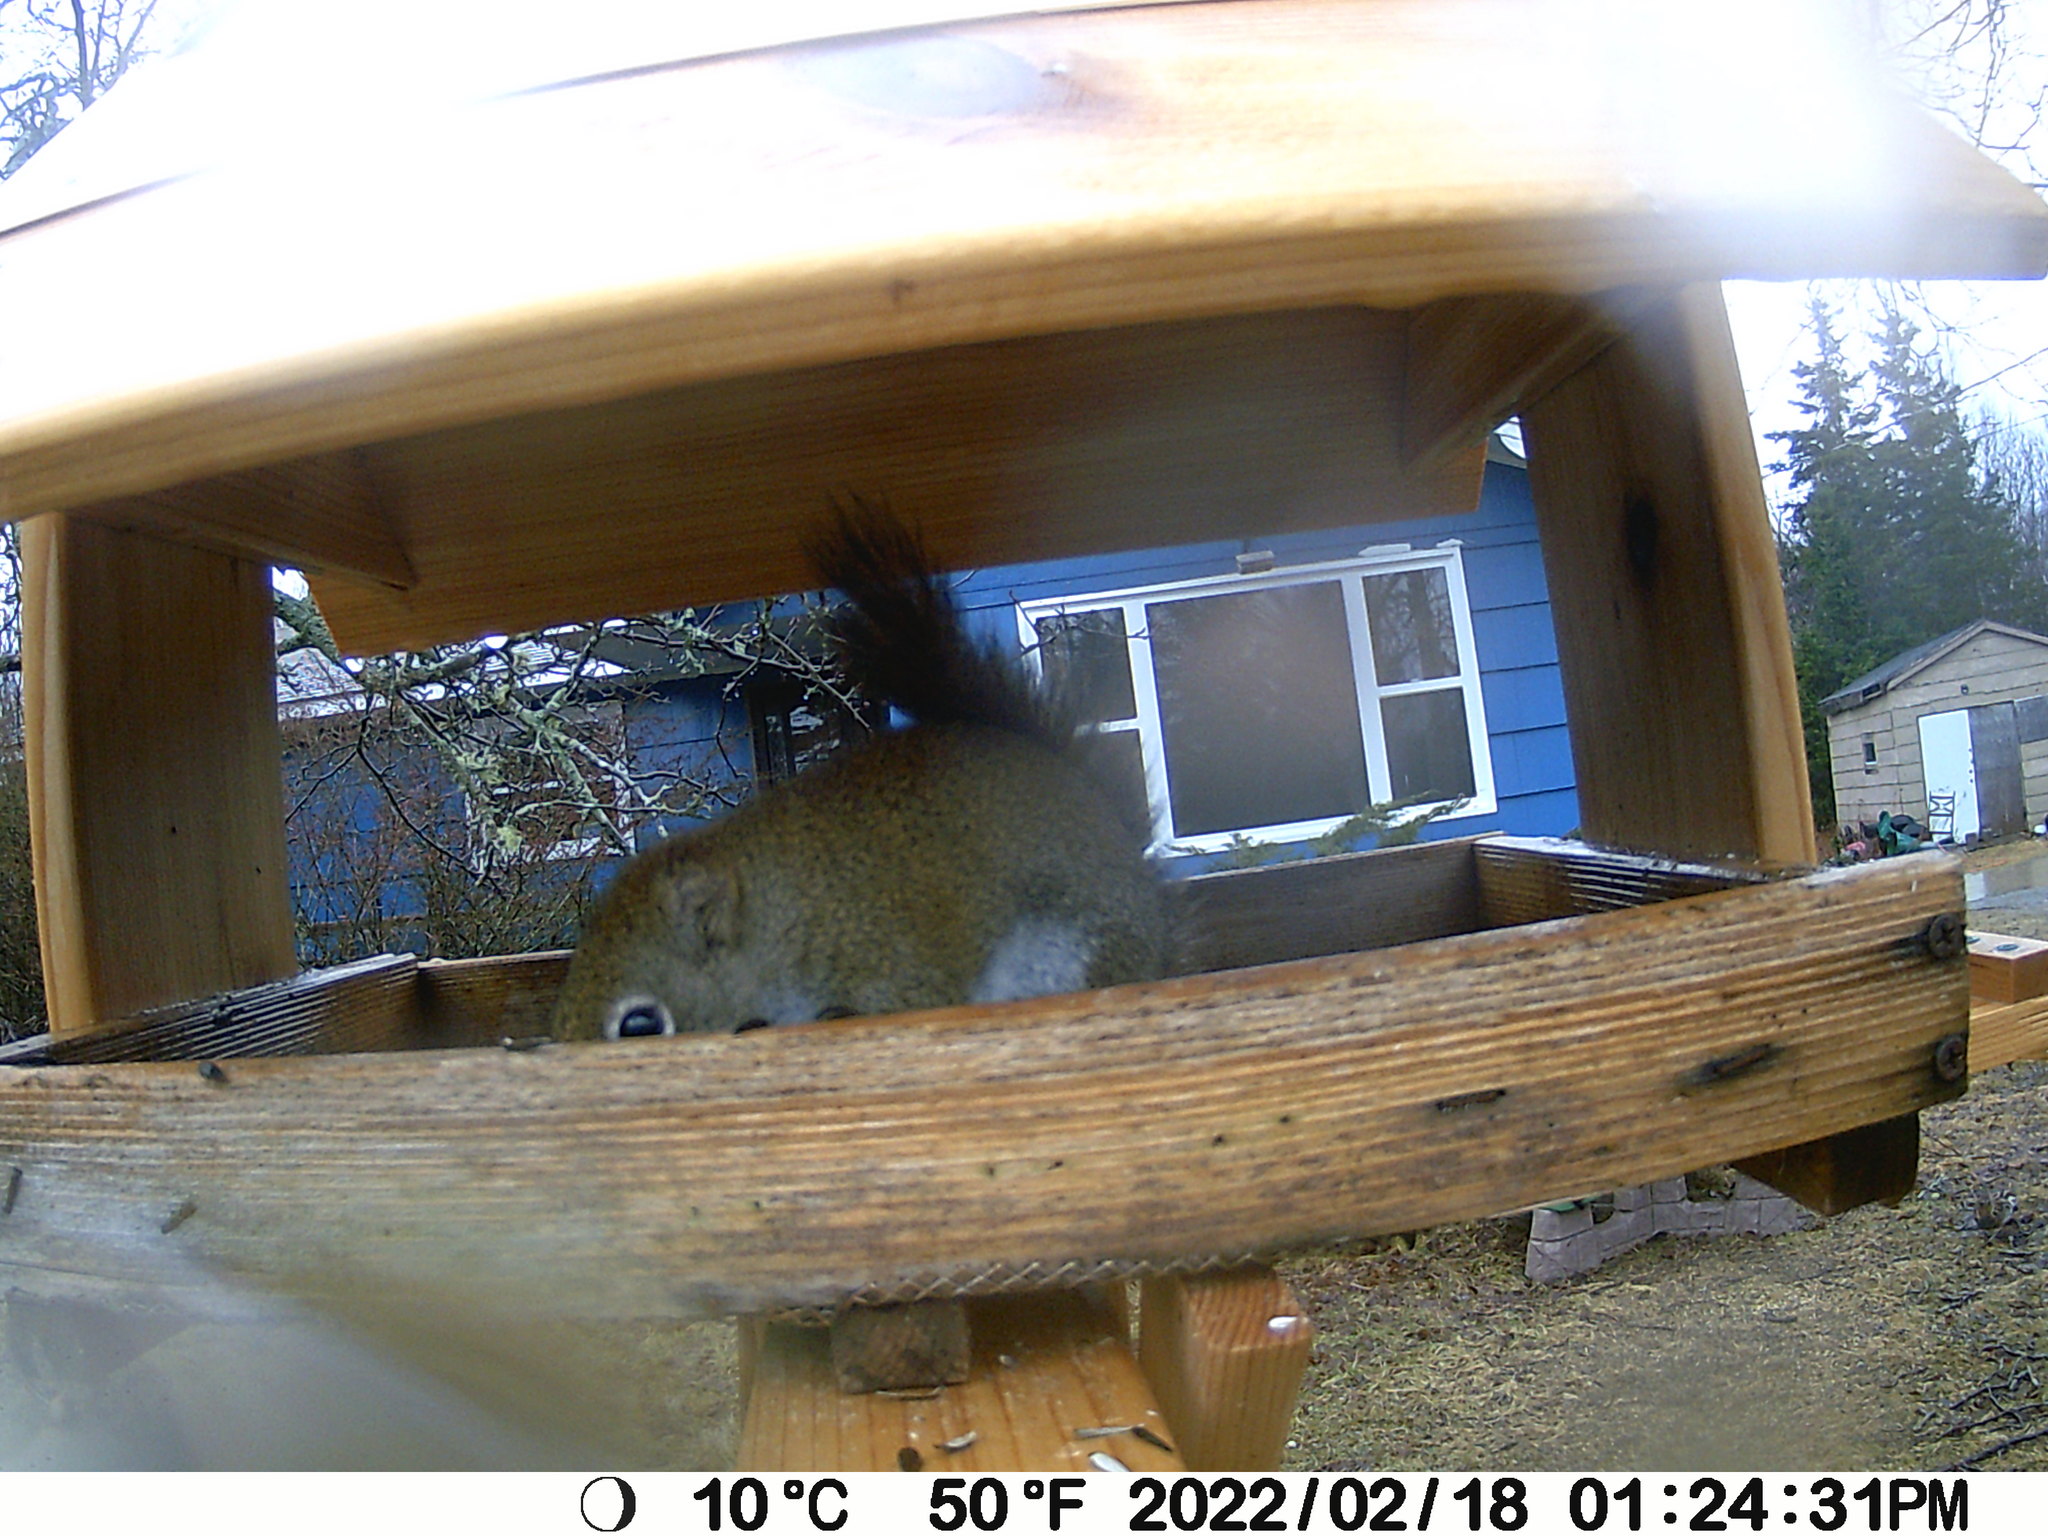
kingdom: Animalia
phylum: Chordata
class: Aves
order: Galliformes
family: Phasianidae
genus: Bonasa
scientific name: Bonasa umbellus
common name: Ruffed grouse
